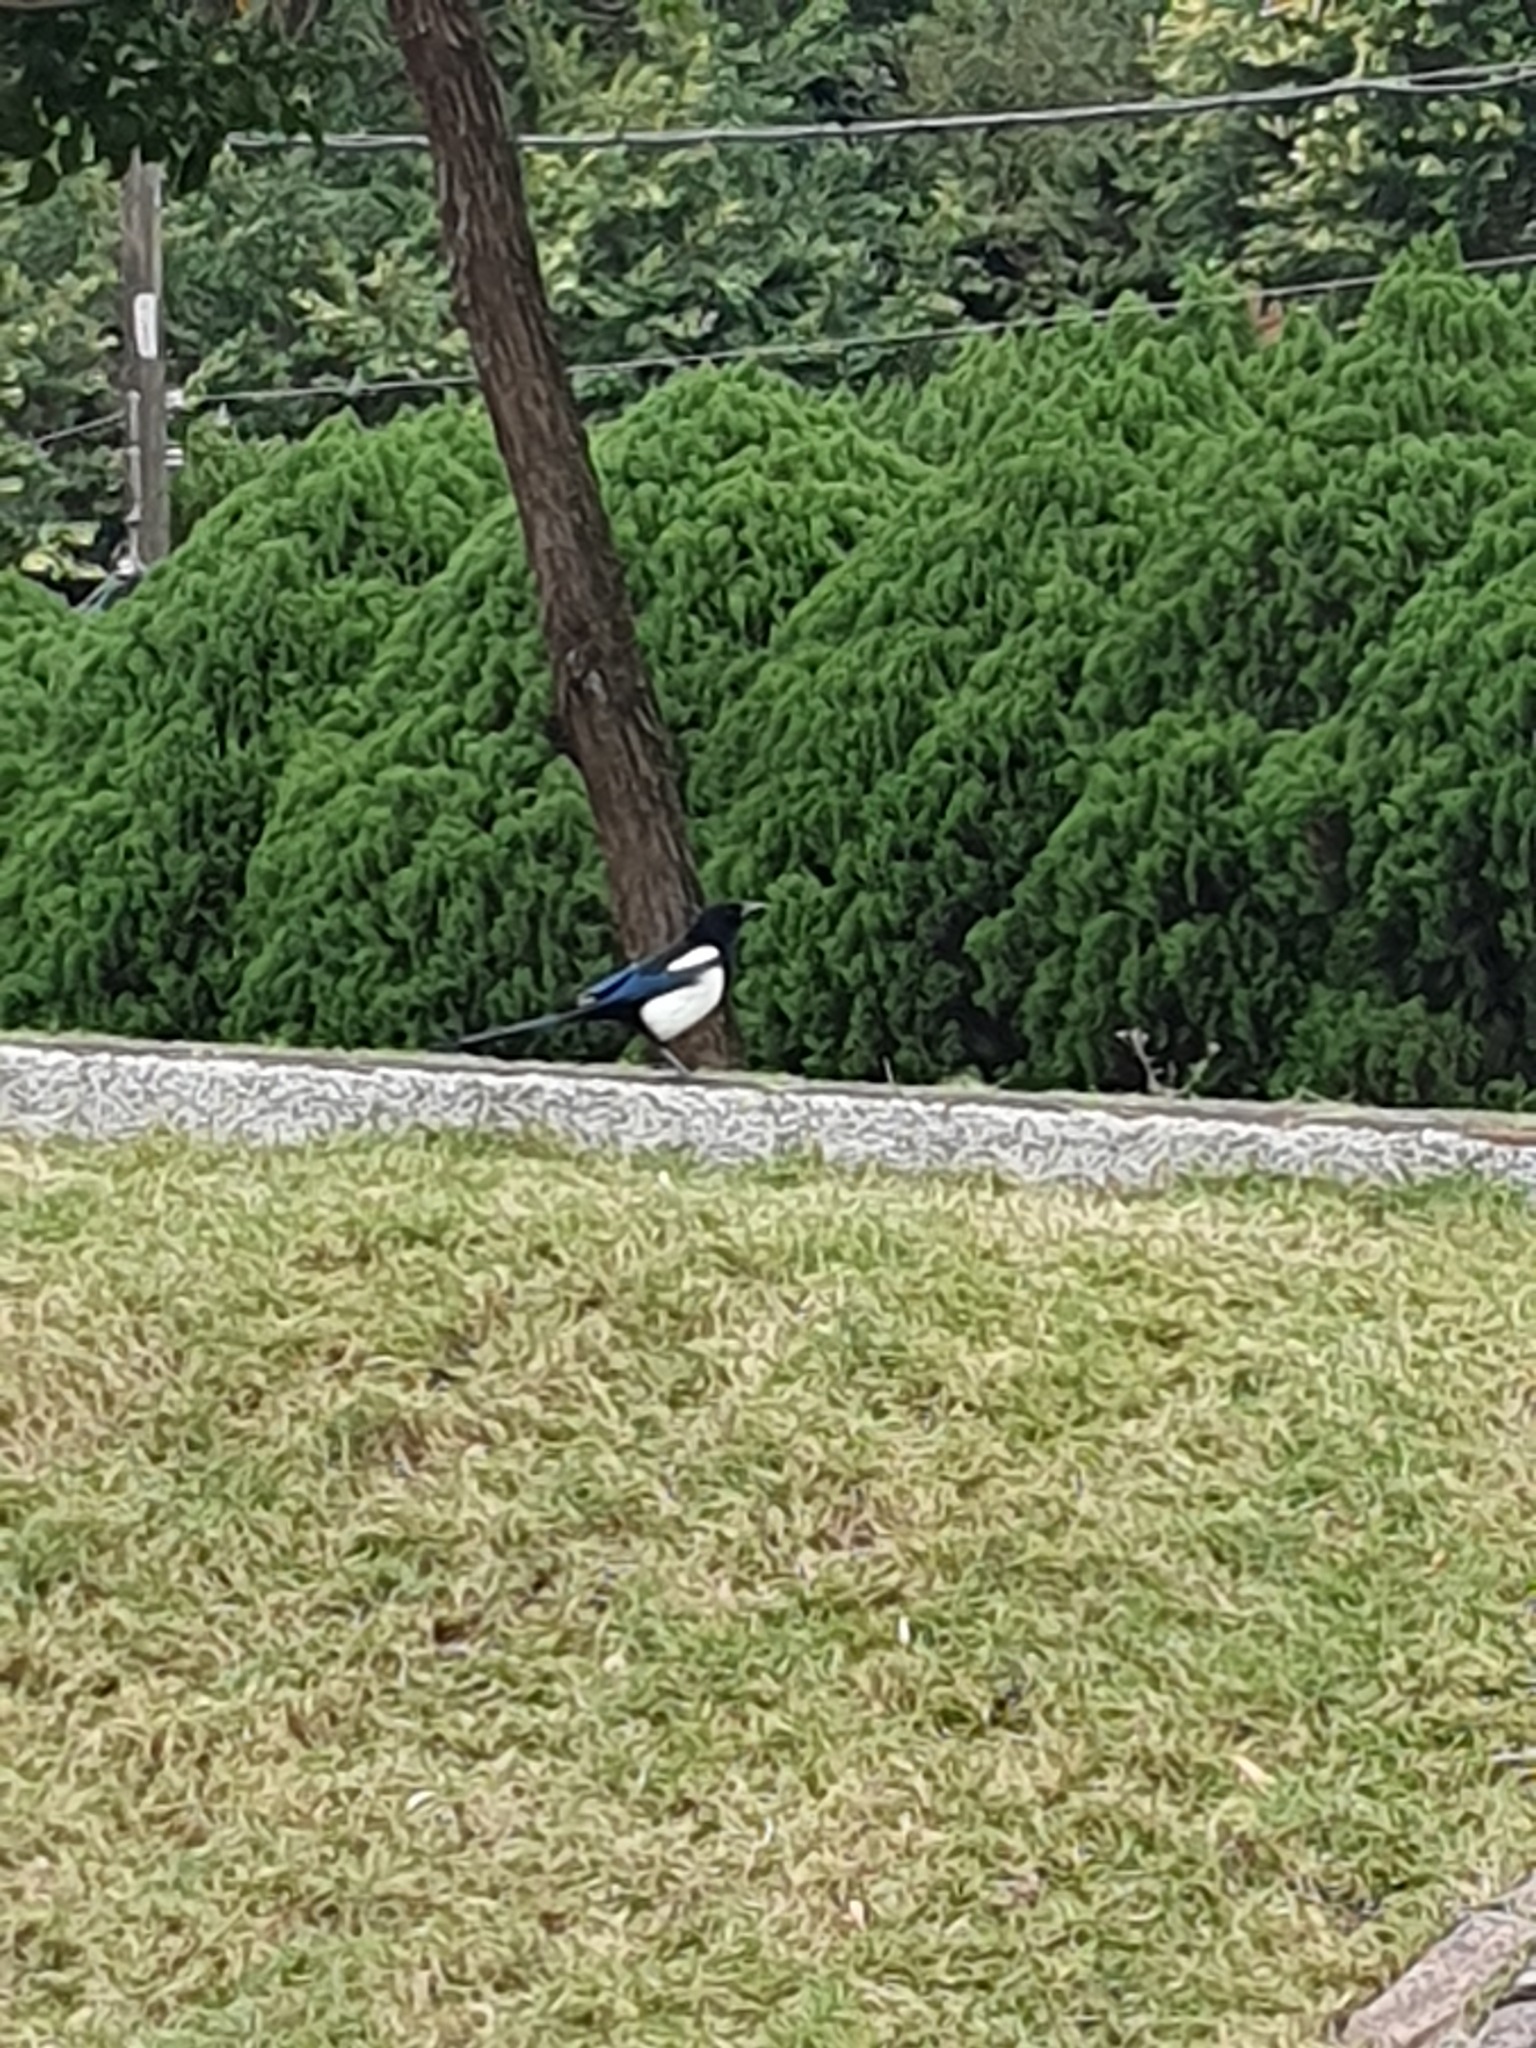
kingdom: Animalia
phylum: Chordata
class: Aves
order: Passeriformes
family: Corvidae
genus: Pica
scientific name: Pica serica
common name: Oriental magpie
